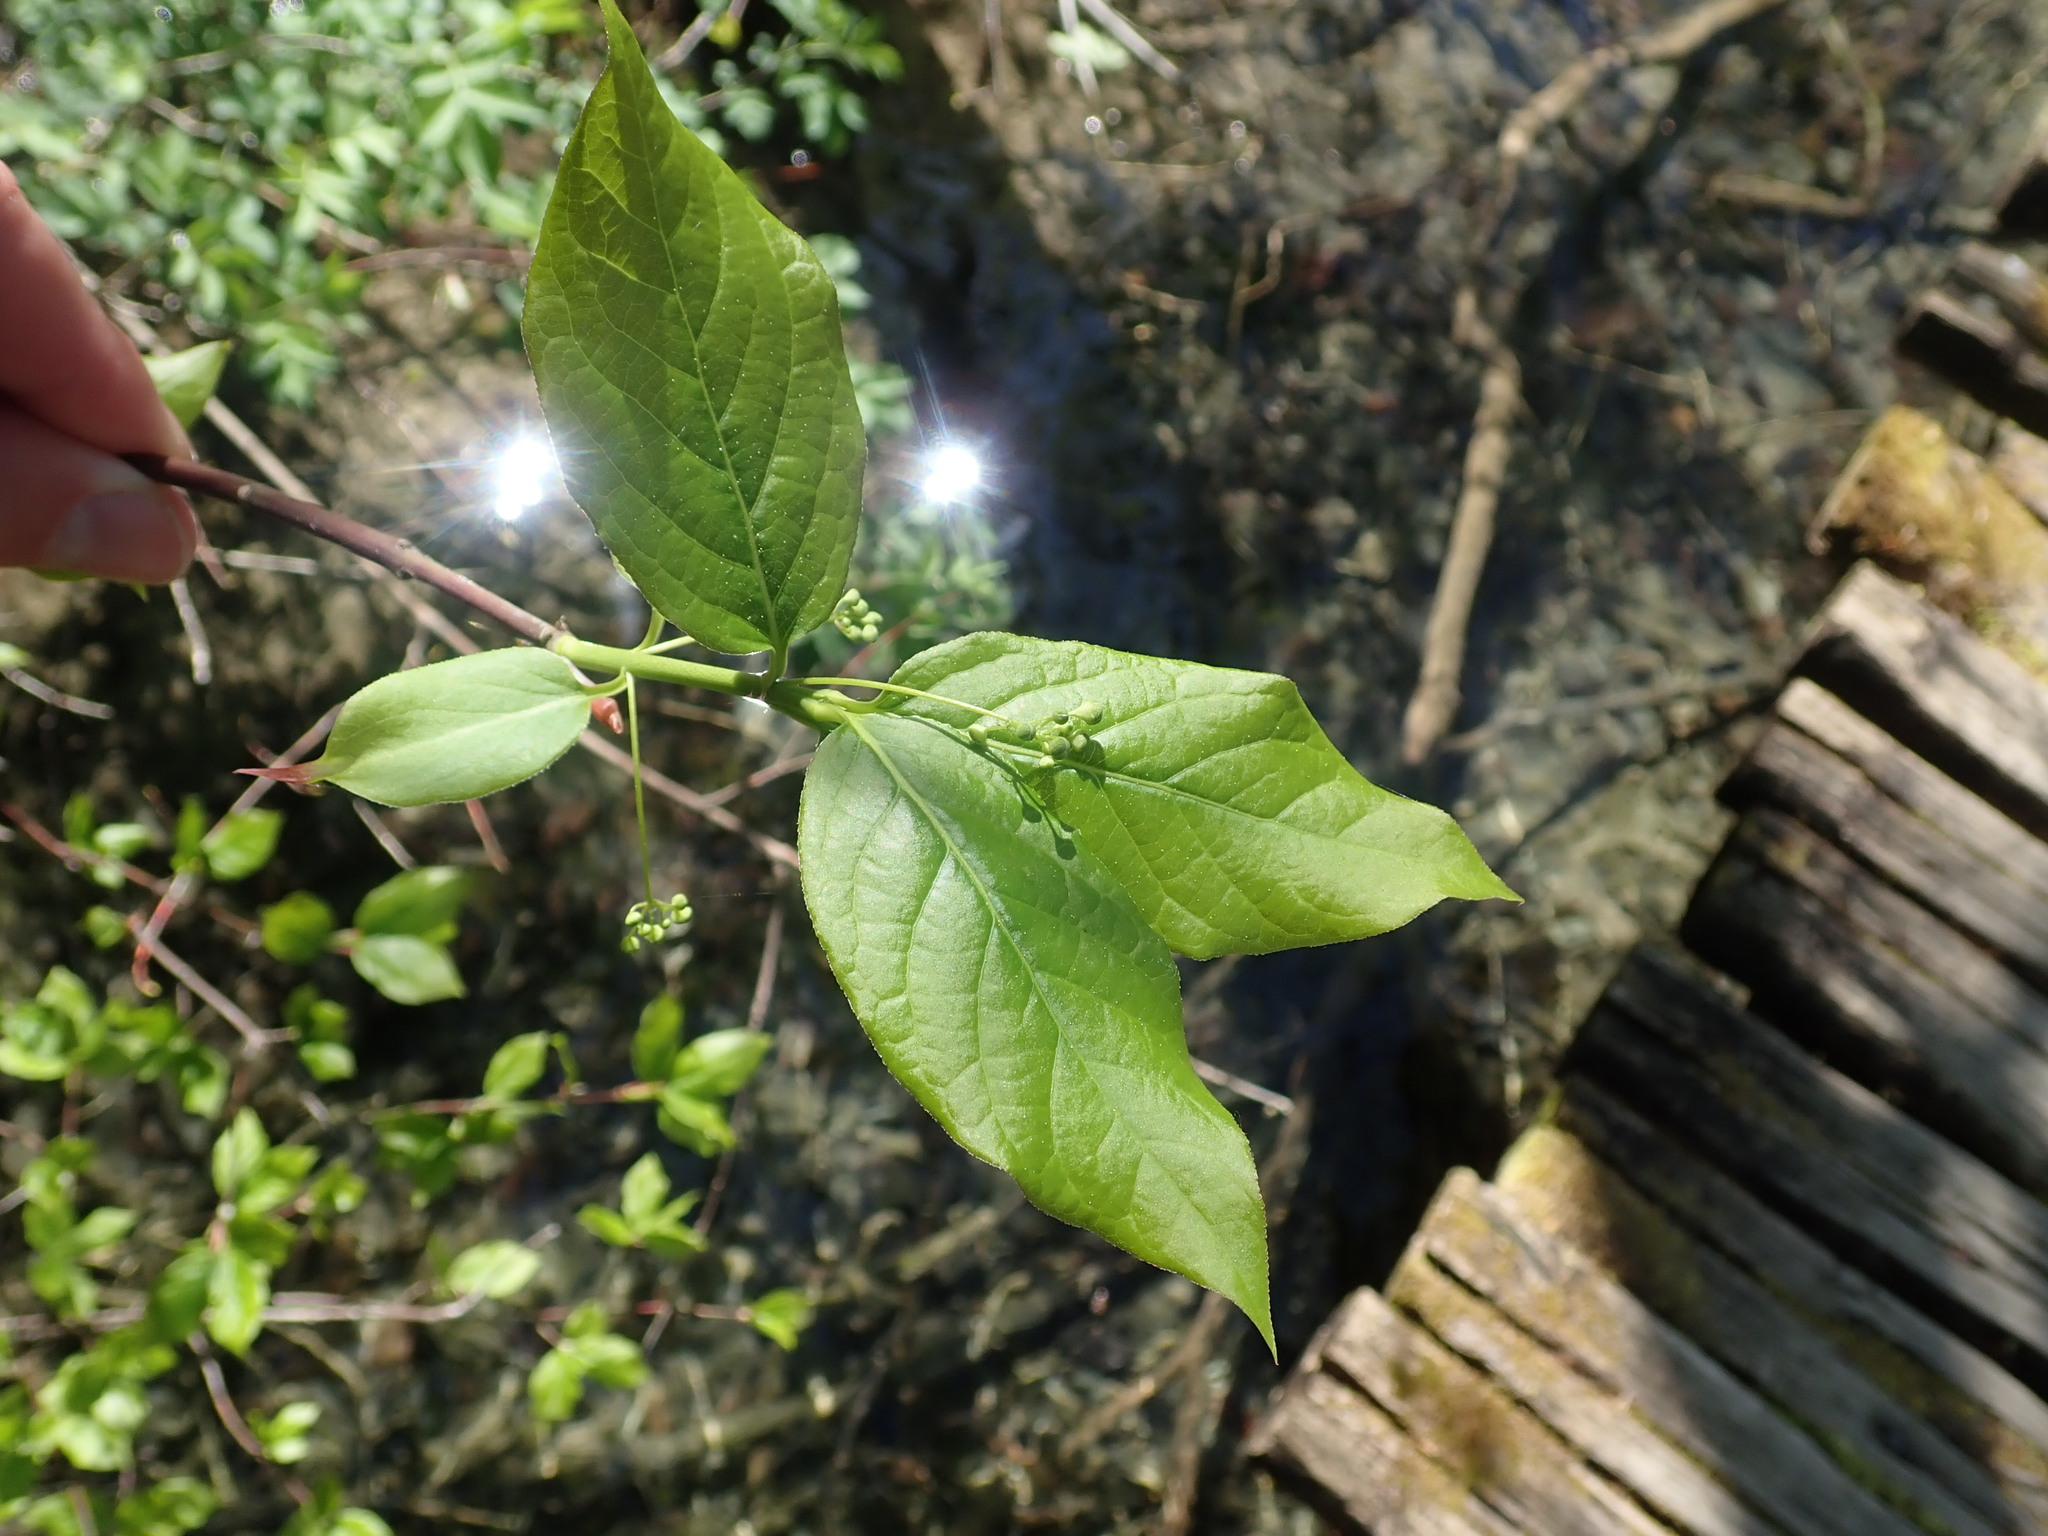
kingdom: Plantae
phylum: Tracheophyta
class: Magnoliopsida
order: Celastrales
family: Celastraceae
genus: Euonymus
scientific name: Euonymus latifolius
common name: Large-leaved spindle
